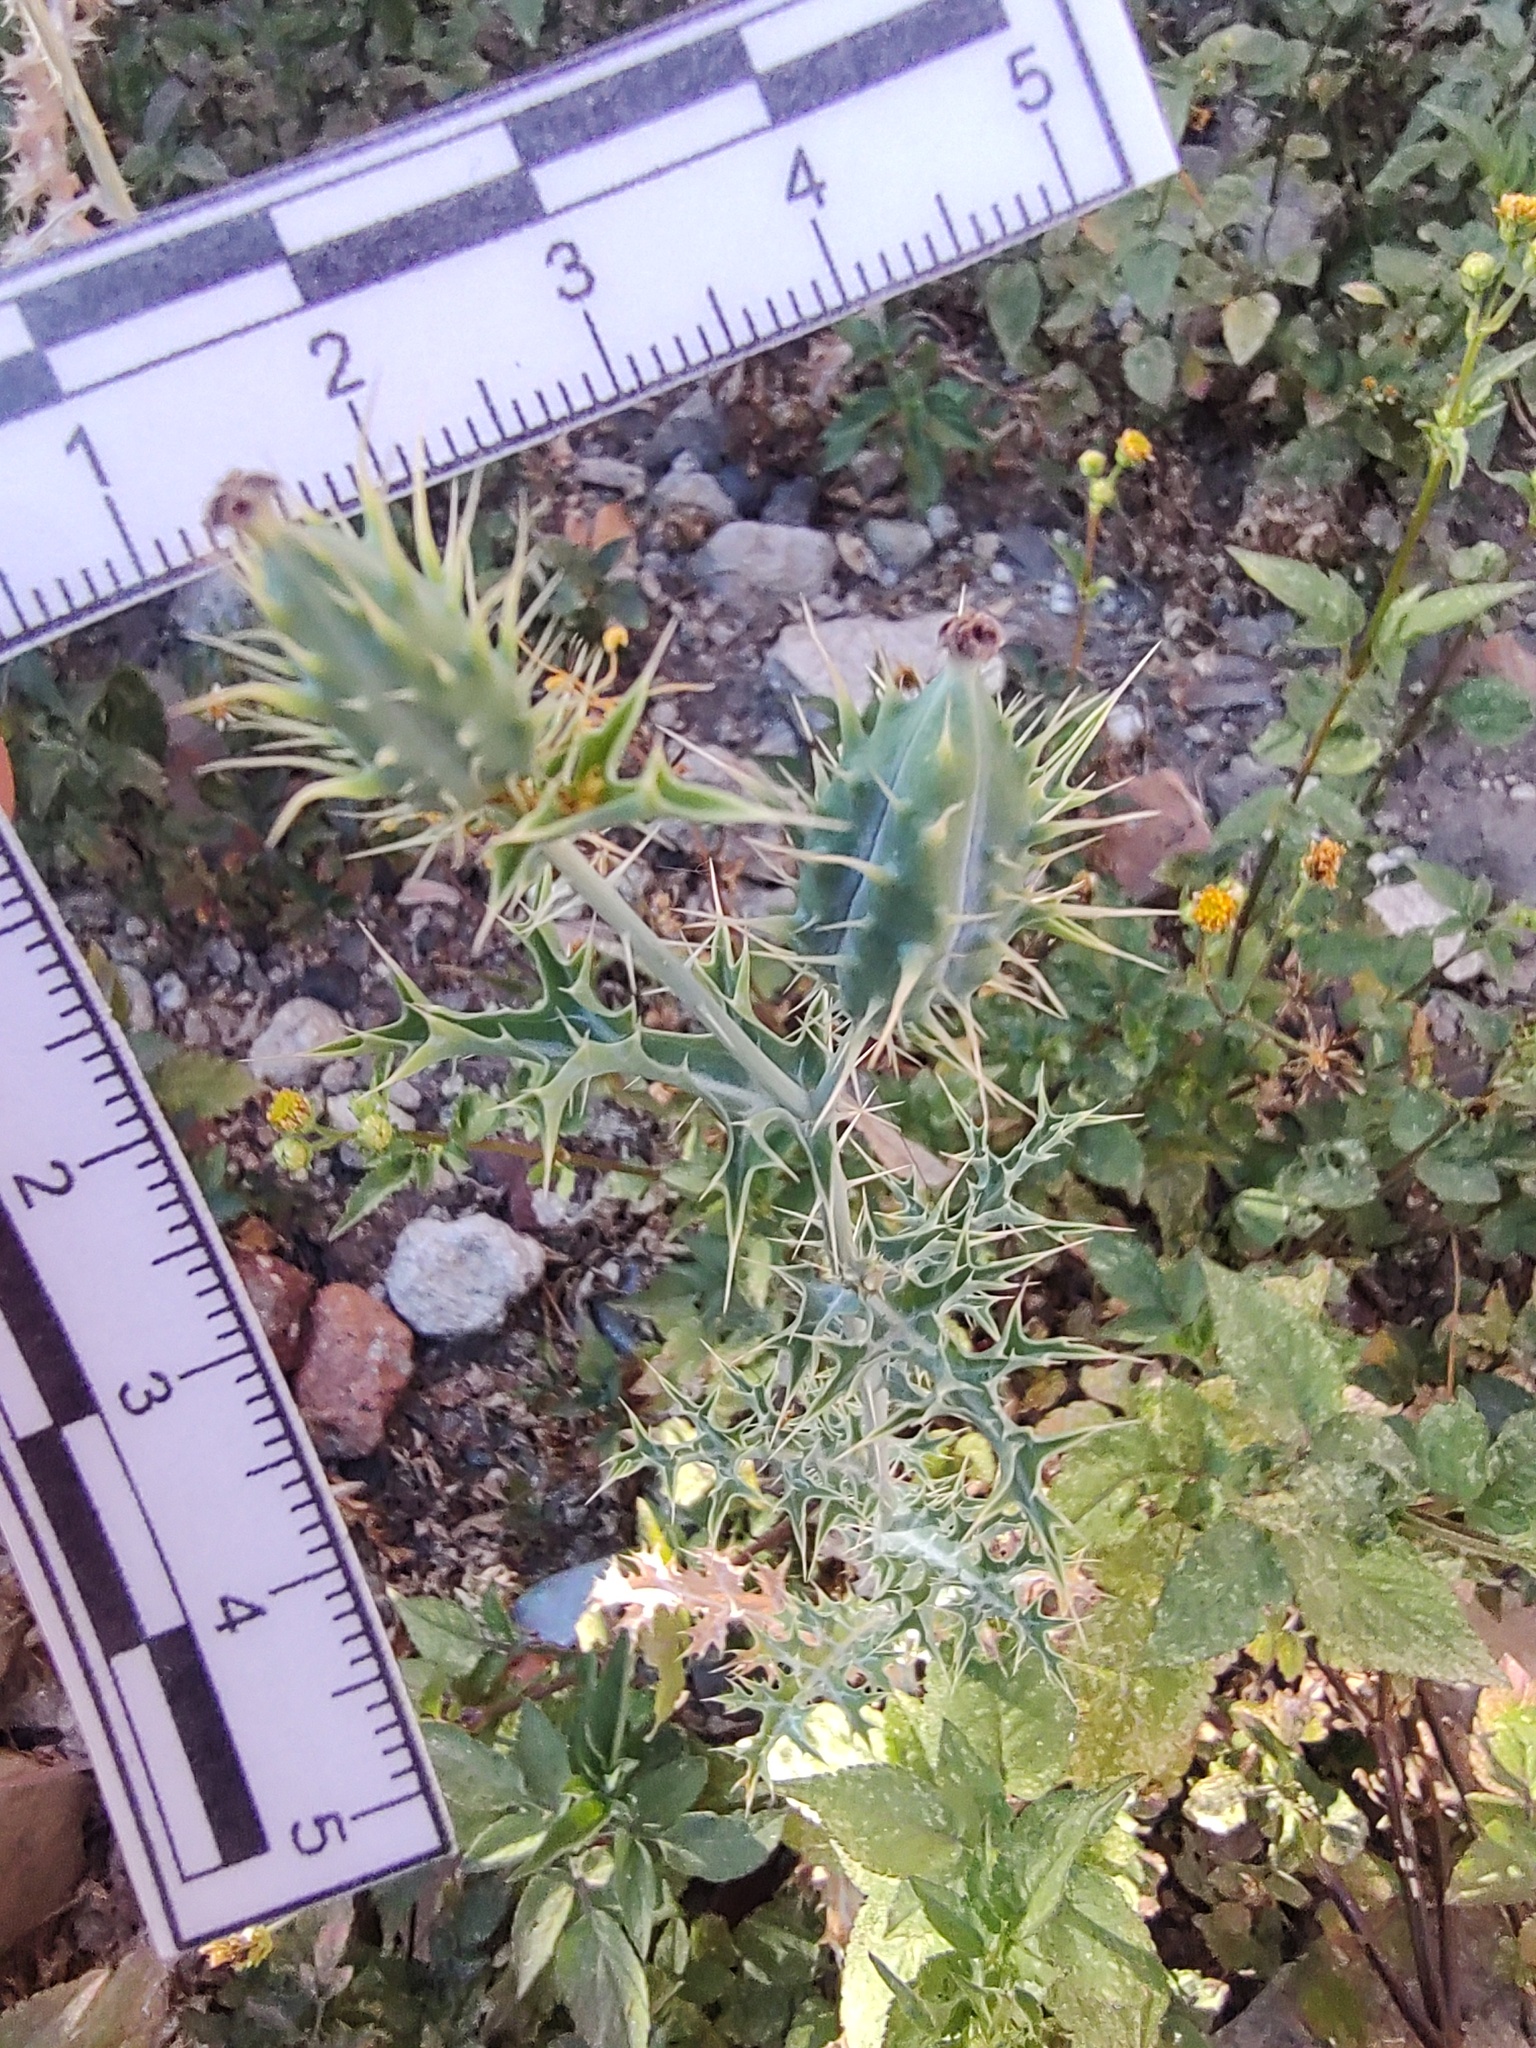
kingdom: Plantae
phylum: Tracheophyta
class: Magnoliopsida
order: Ranunculales
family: Papaveraceae
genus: Argemone
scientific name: Argemone ochroleuca
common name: White-flower mexican-poppy
